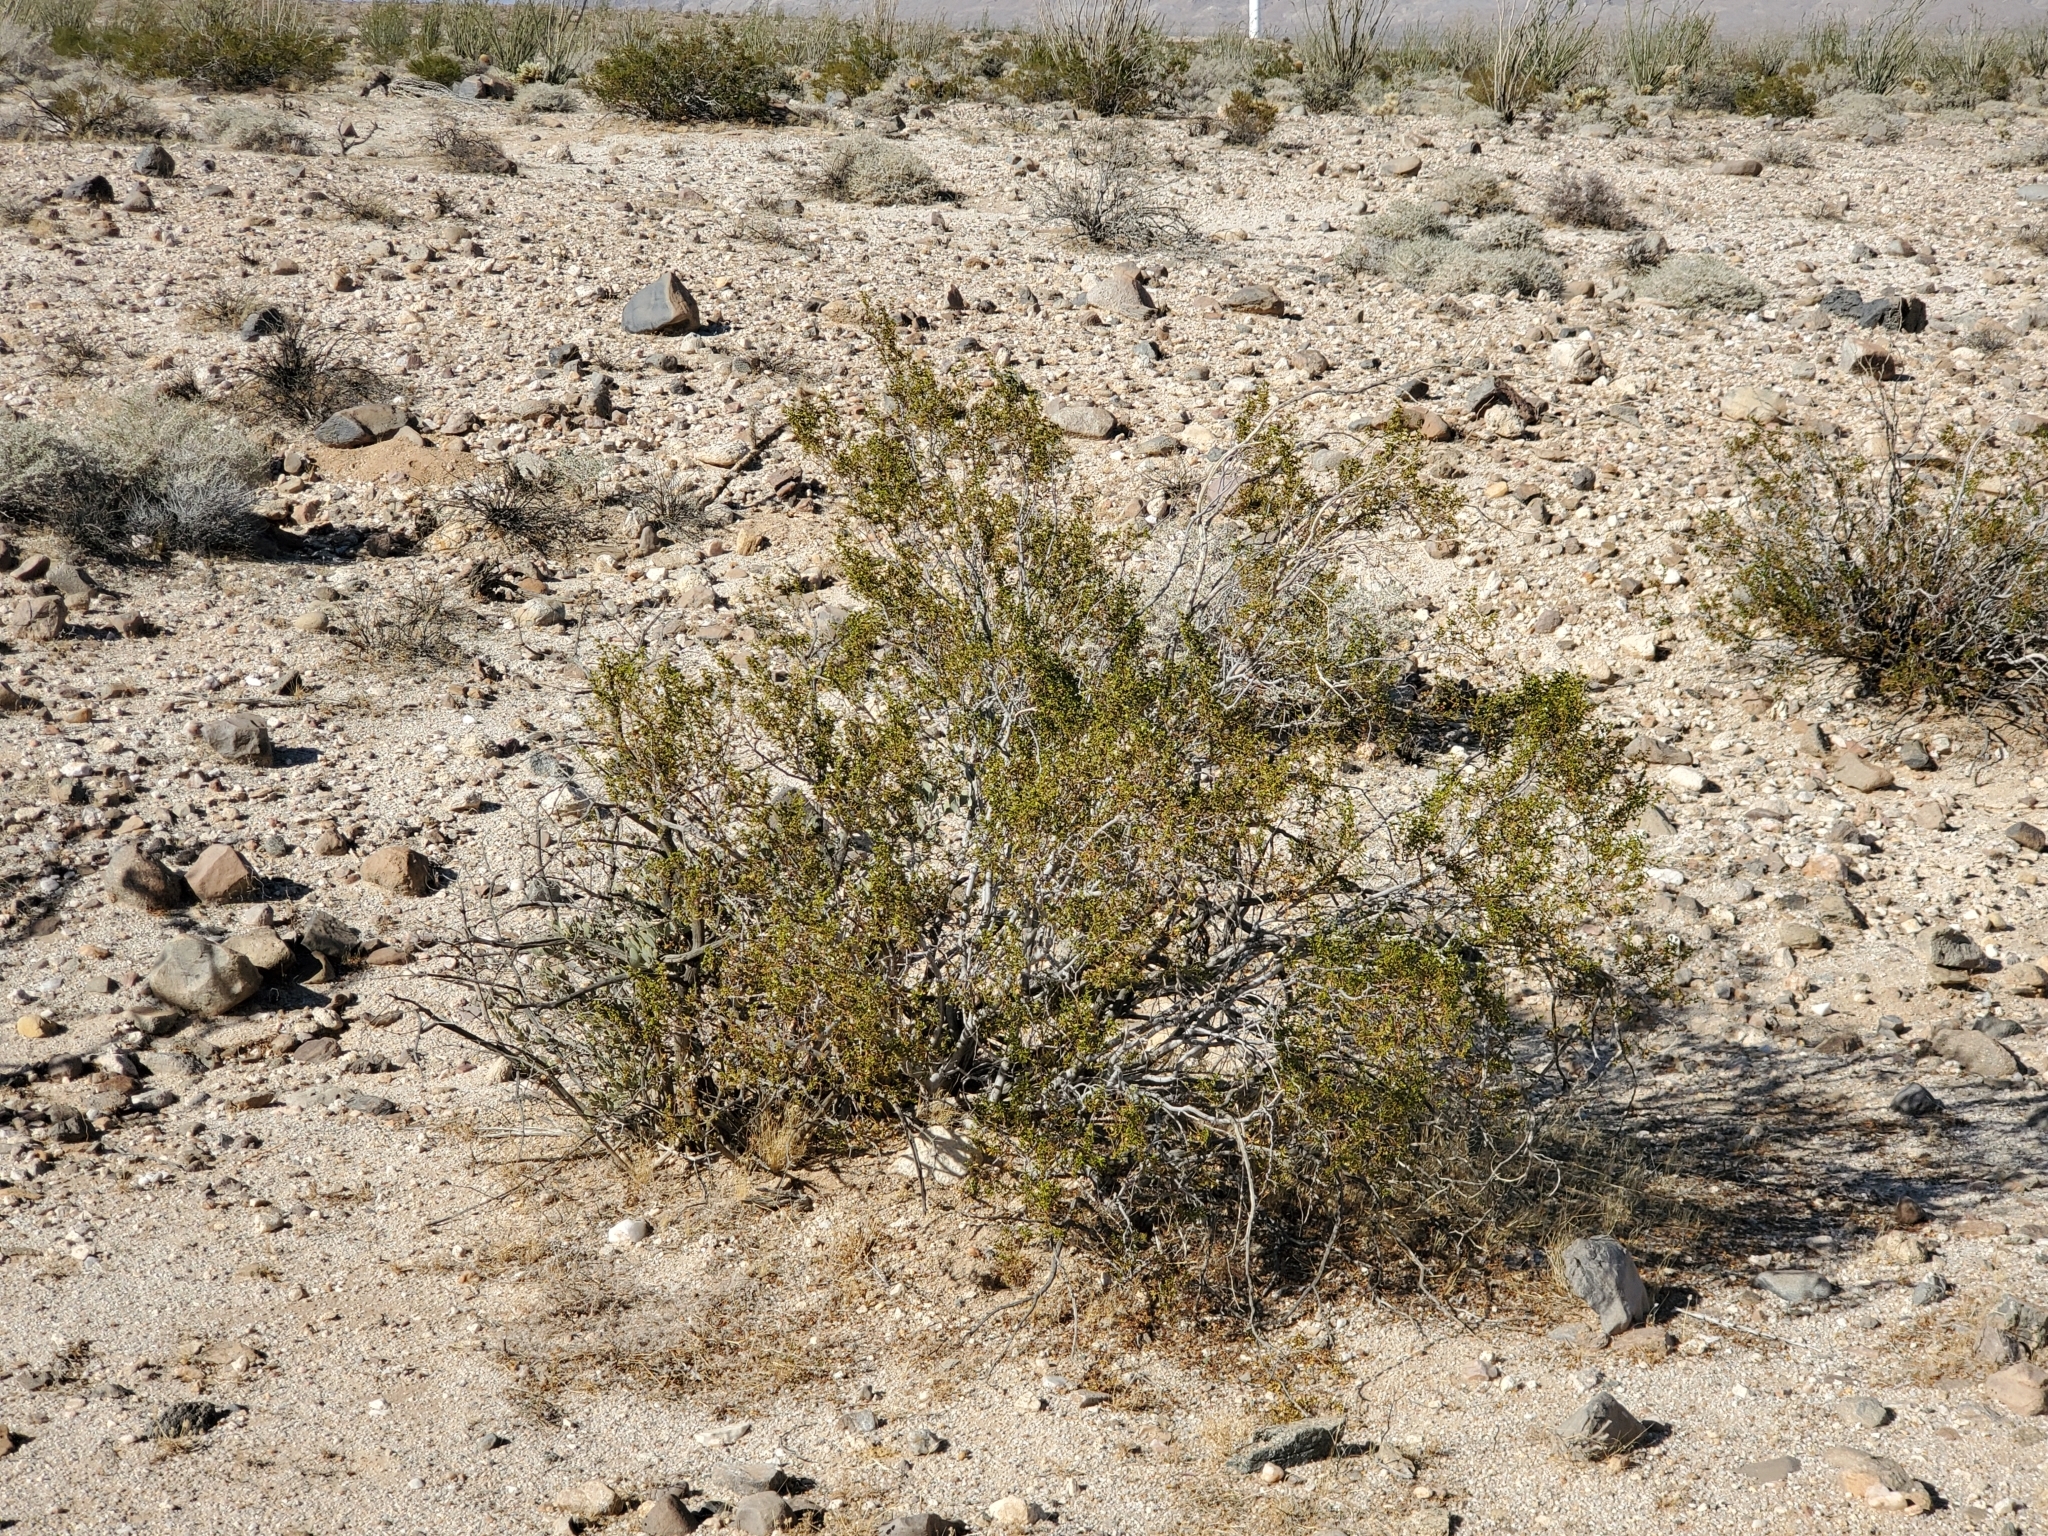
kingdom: Plantae
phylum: Tracheophyta
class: Magnoliopsida
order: Zygophyllales
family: Zygophyllaceae
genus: Larrea
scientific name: Larrea tridentata
